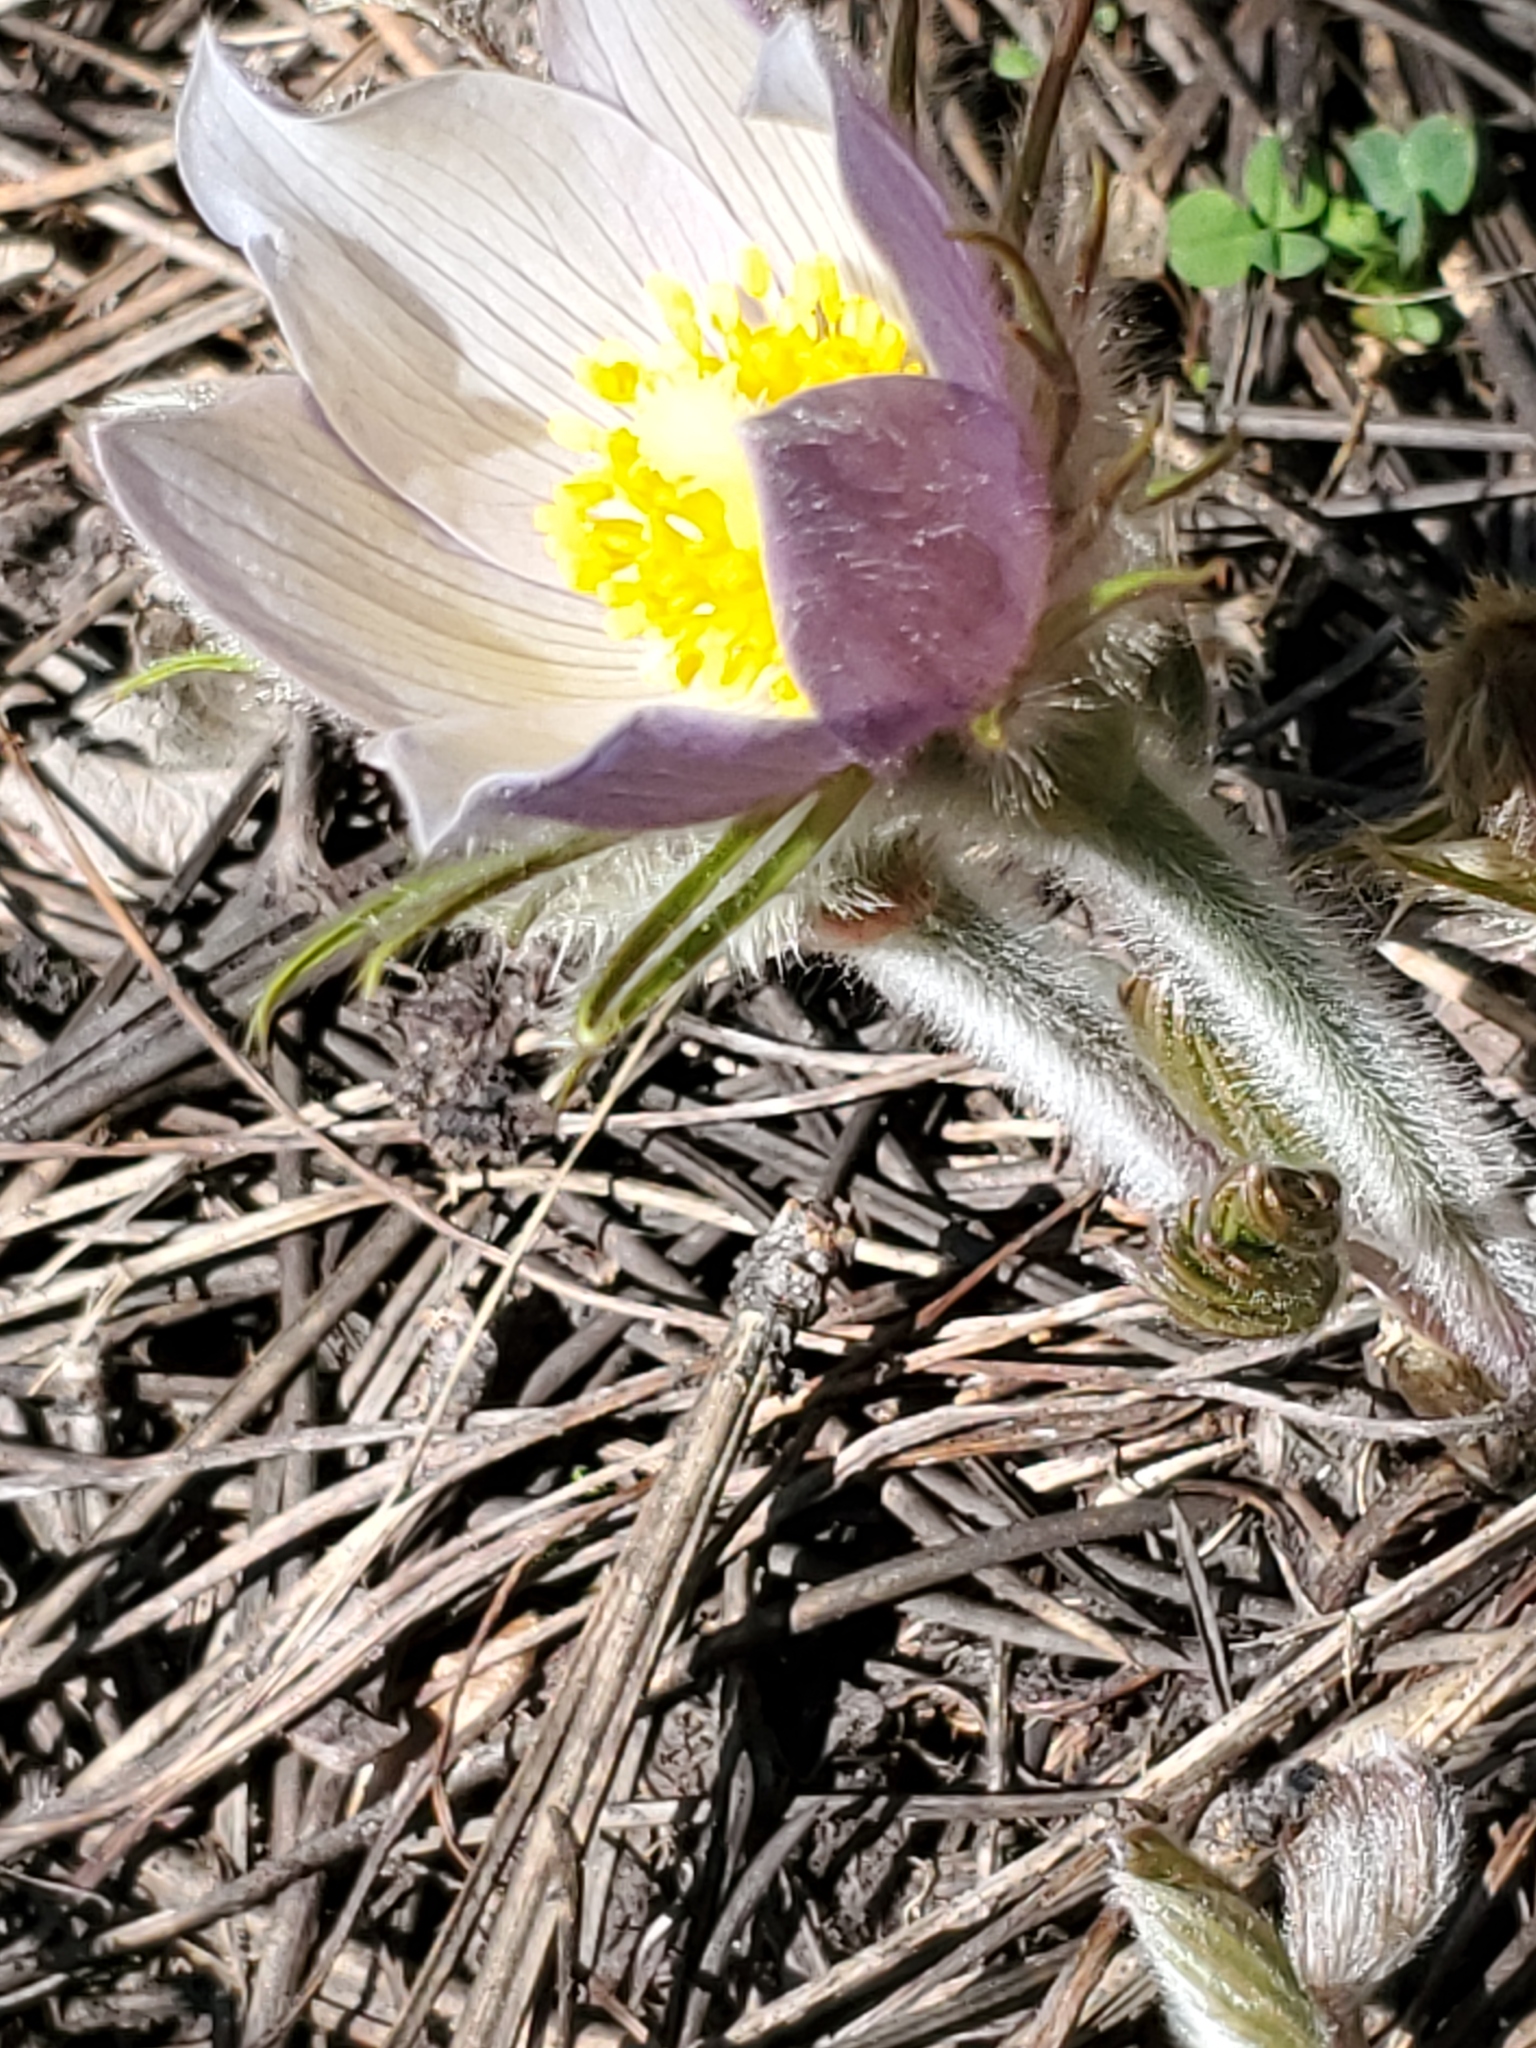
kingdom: Plantae
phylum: Tracheophyta
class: Magnoliopsida
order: Ranunculales
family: Ranunculaceae
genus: Pulsatilla
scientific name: Pulsatilla nuttalliana
